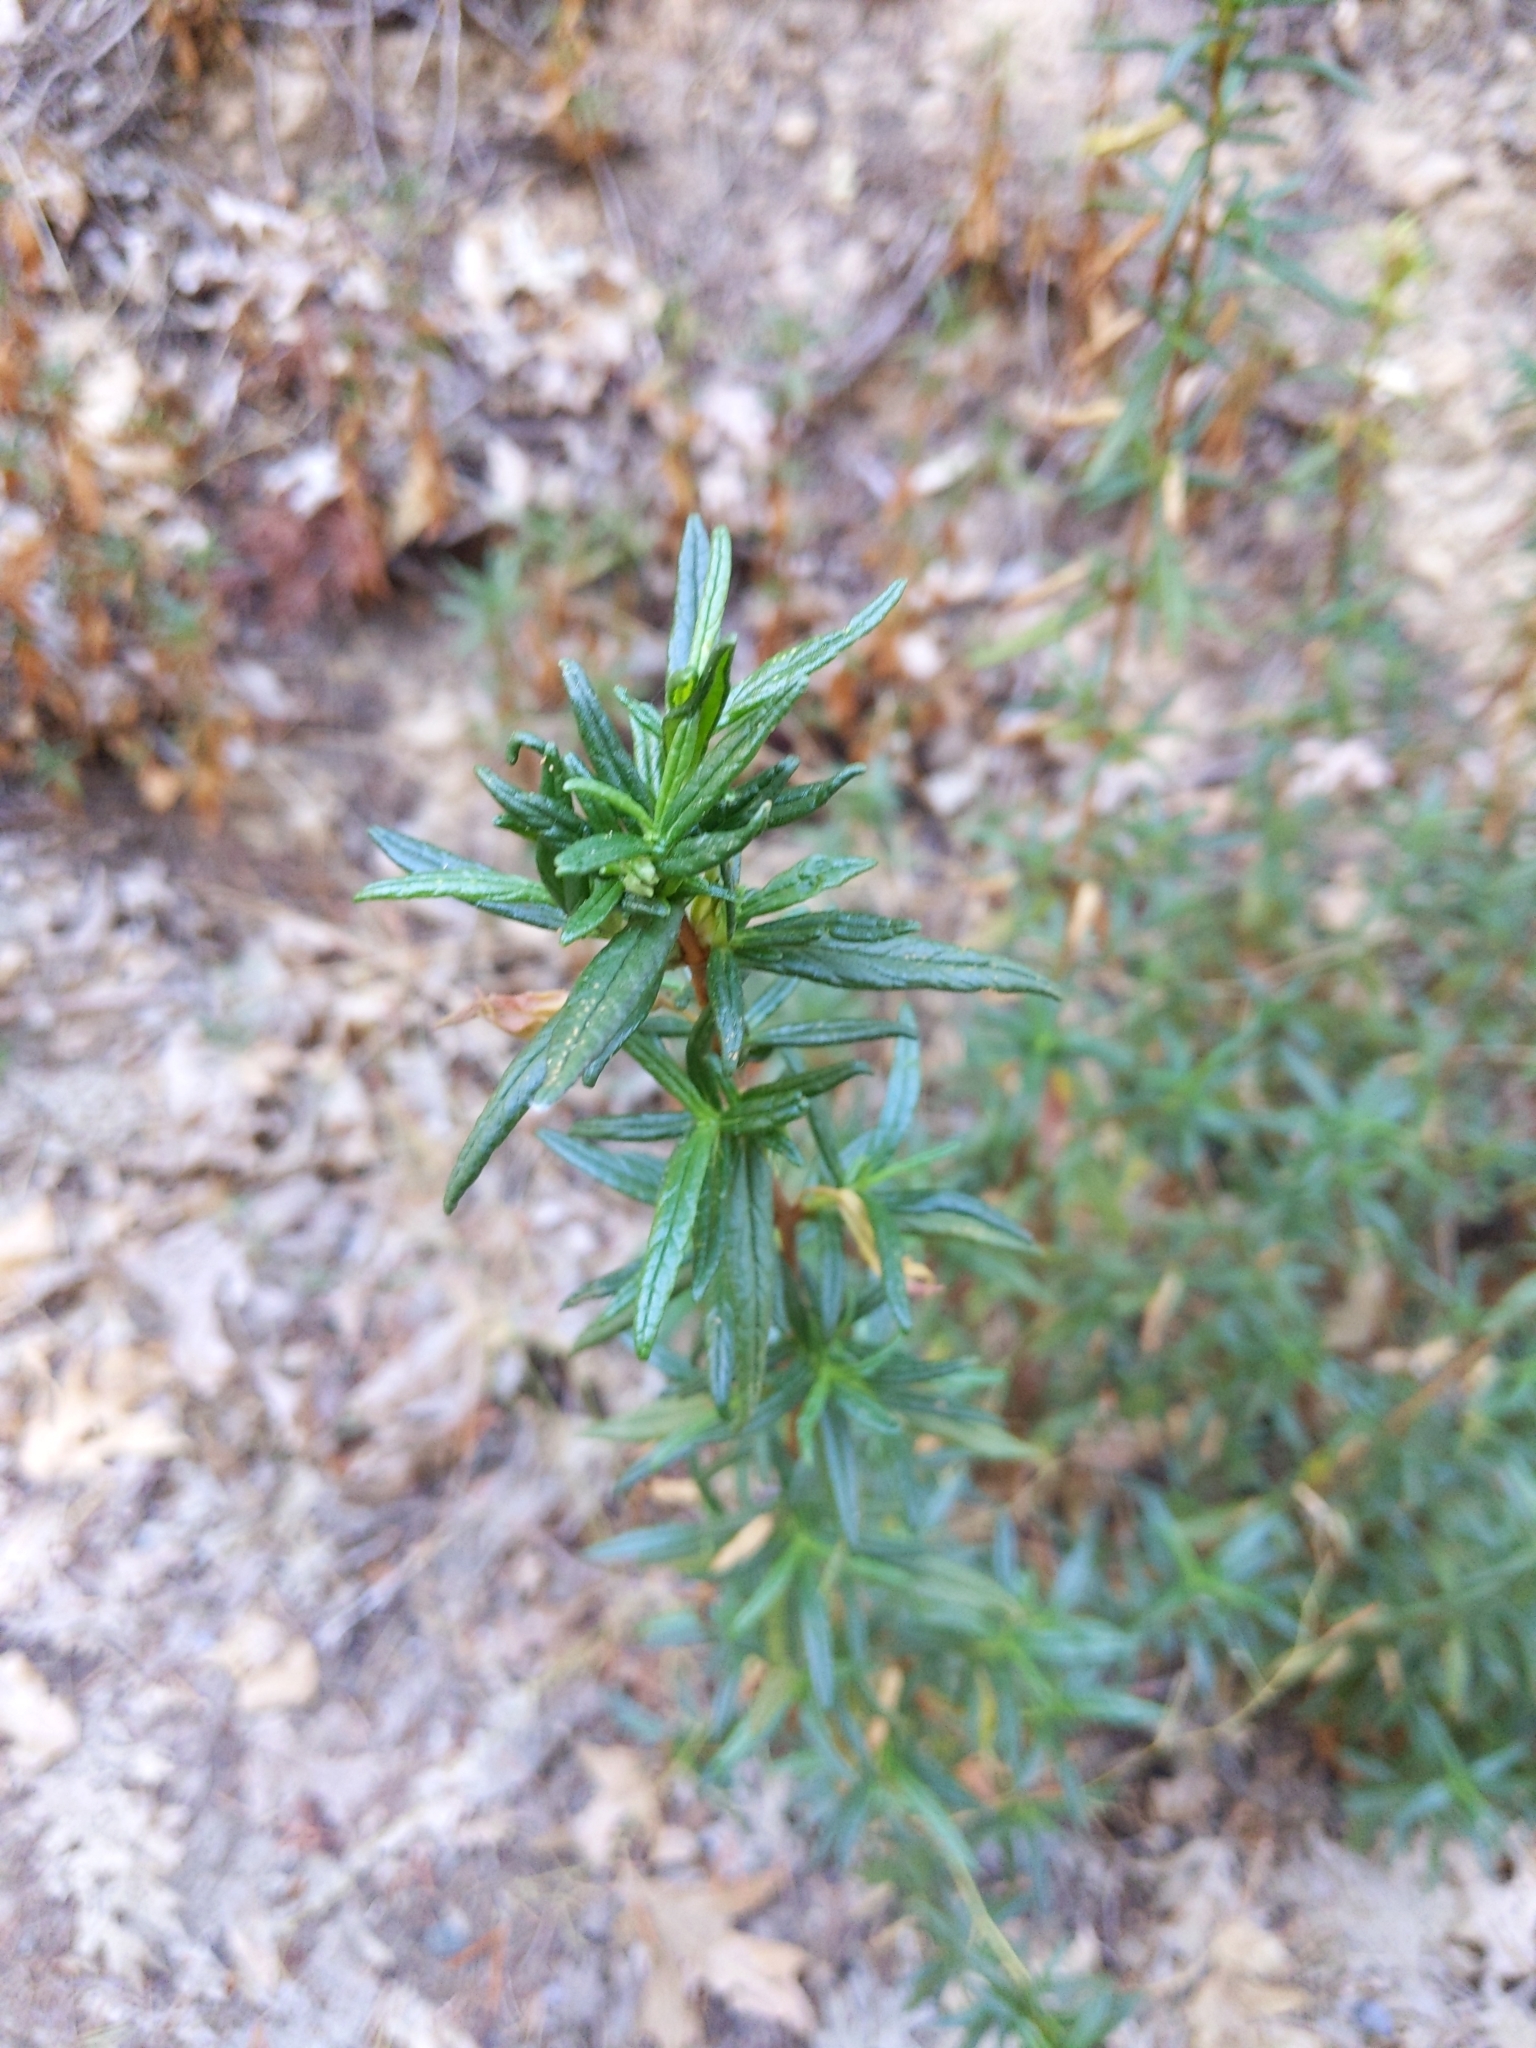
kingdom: Plantae
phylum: Tracheophyta
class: Magnoliopsida
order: Lamiales
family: Phrymaceae
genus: Diplacus
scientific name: Diplacus aurantiacus
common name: Bush monkey-flower
